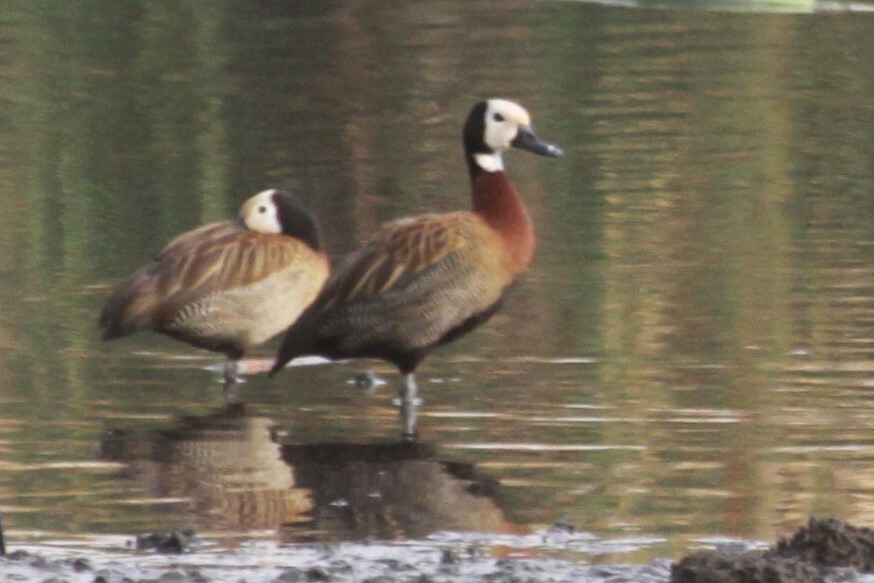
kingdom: Animalia
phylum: Chordata
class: Aves
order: Anseriformes
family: Anatidae
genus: Dendrocygna
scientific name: Dendrocygna viduata
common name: White-faced whistling duck
